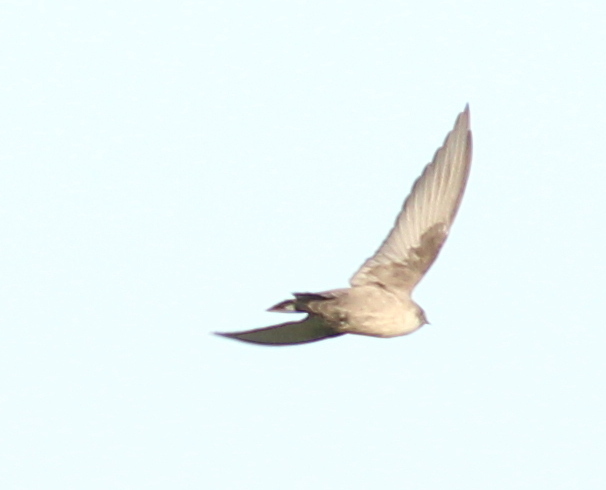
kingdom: Animalia
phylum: Chordata
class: Aves
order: Passeriformes
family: Hirundinidae
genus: Ptyonoprogne
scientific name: Ptyonoprogne rupestris
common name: Eurasian crag martin
